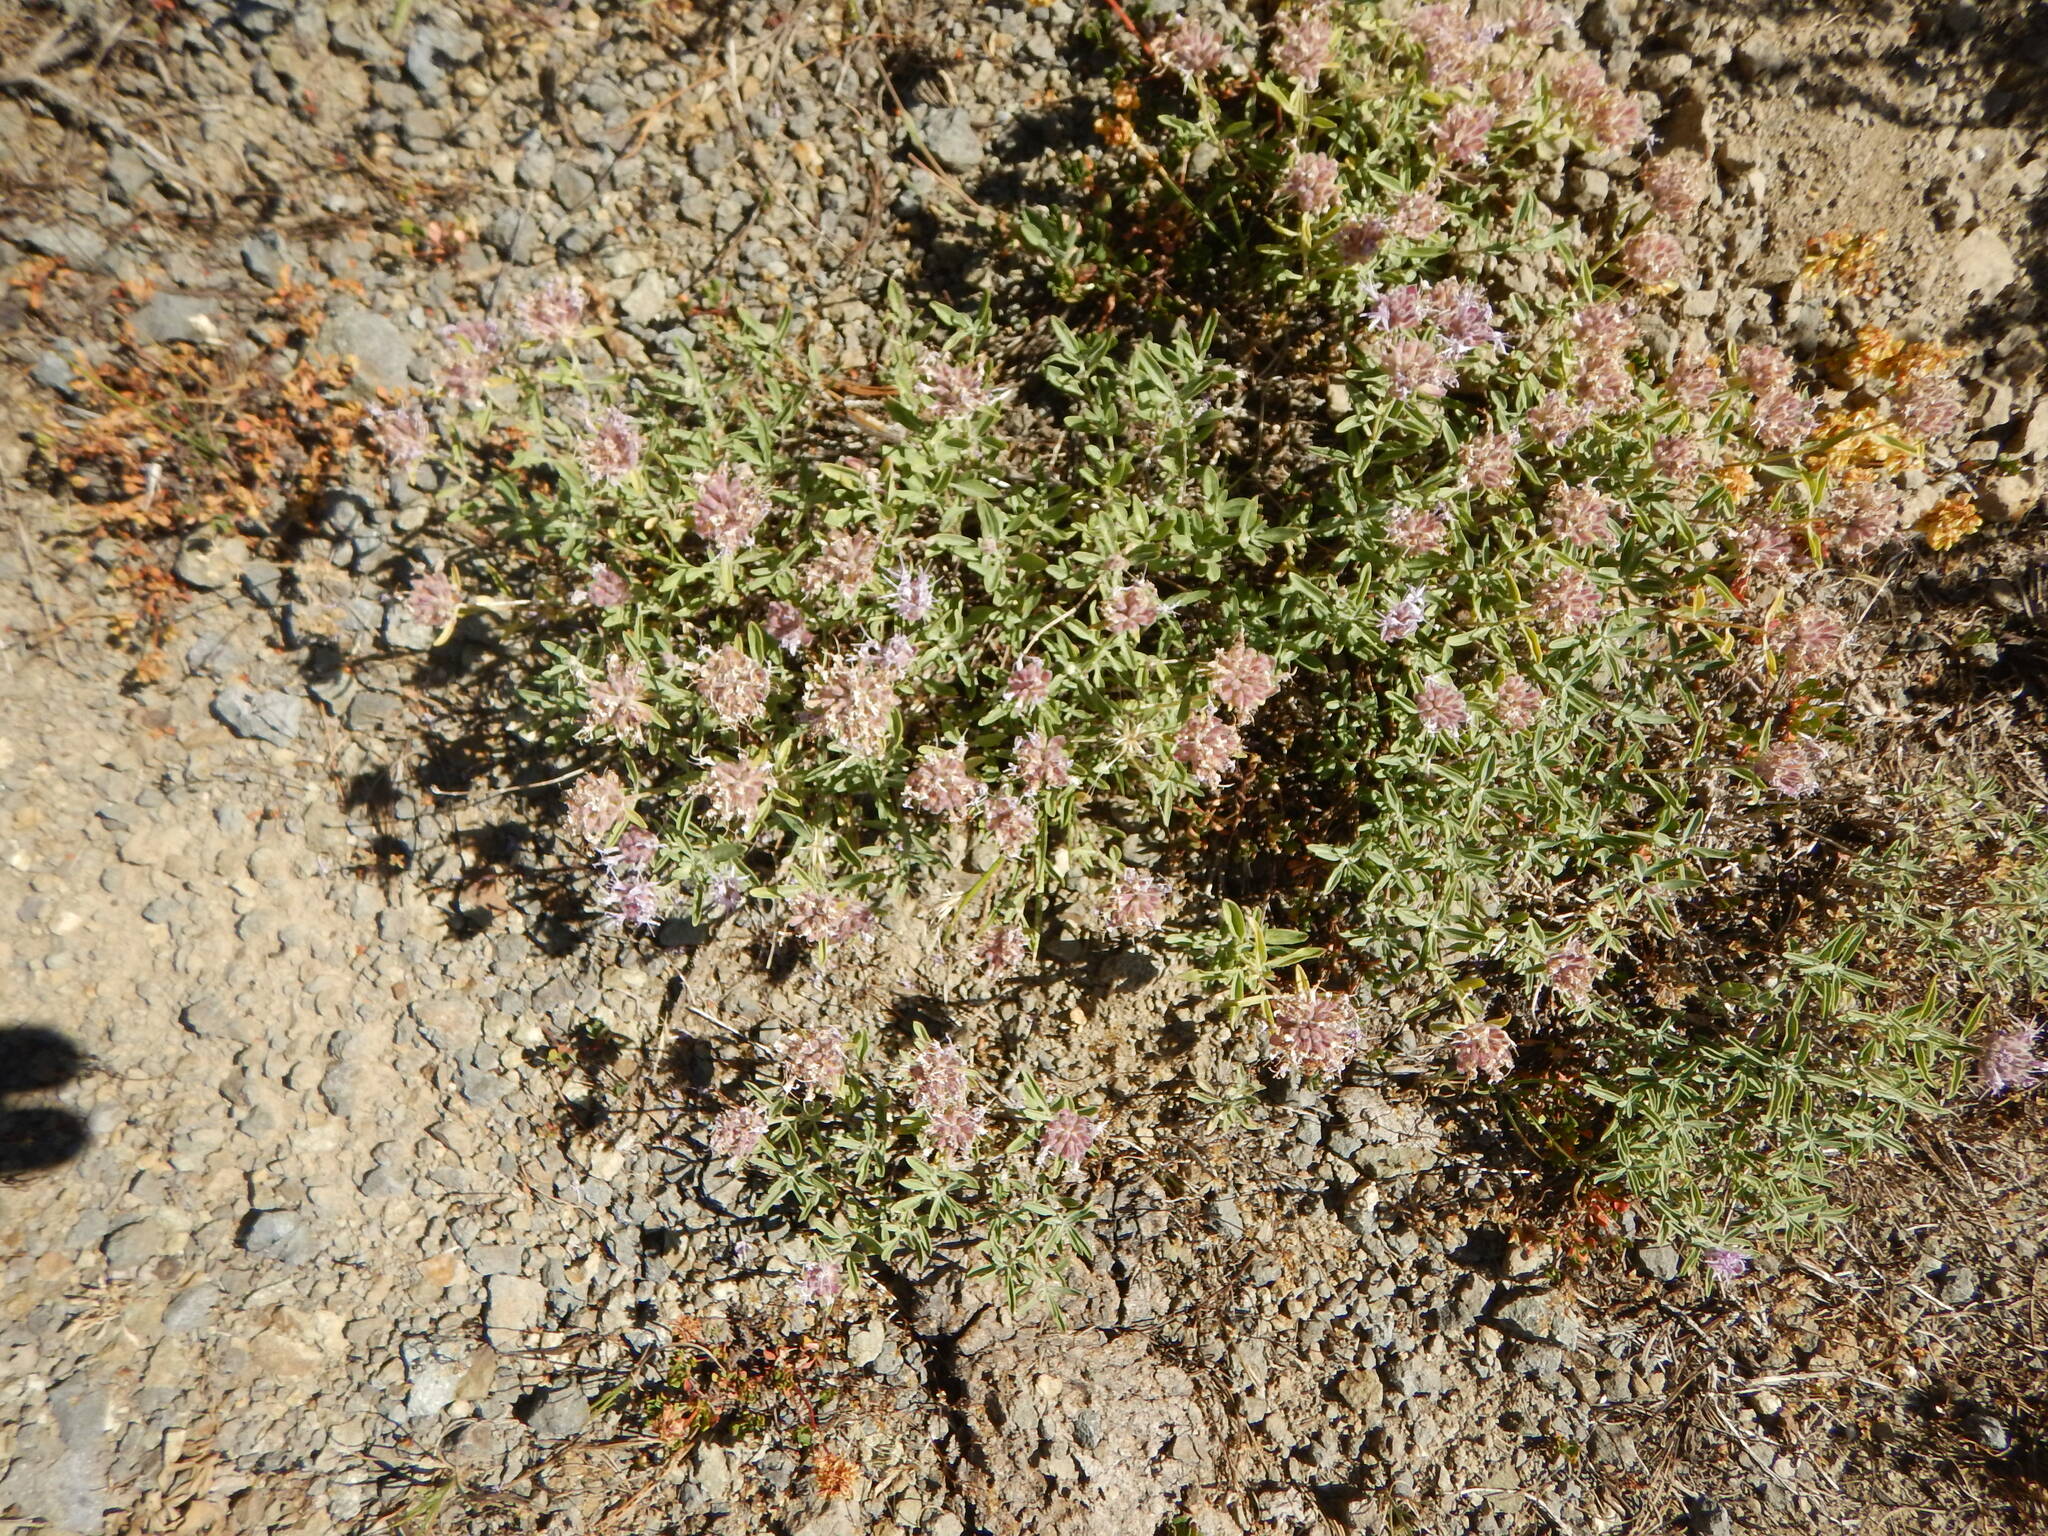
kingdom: Plantae
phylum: Tracheophyta
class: Magnoliopsida
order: Lamiales
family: Lamiaceae
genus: Monardella
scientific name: Monardella odoratissima
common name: Pacific monardella
